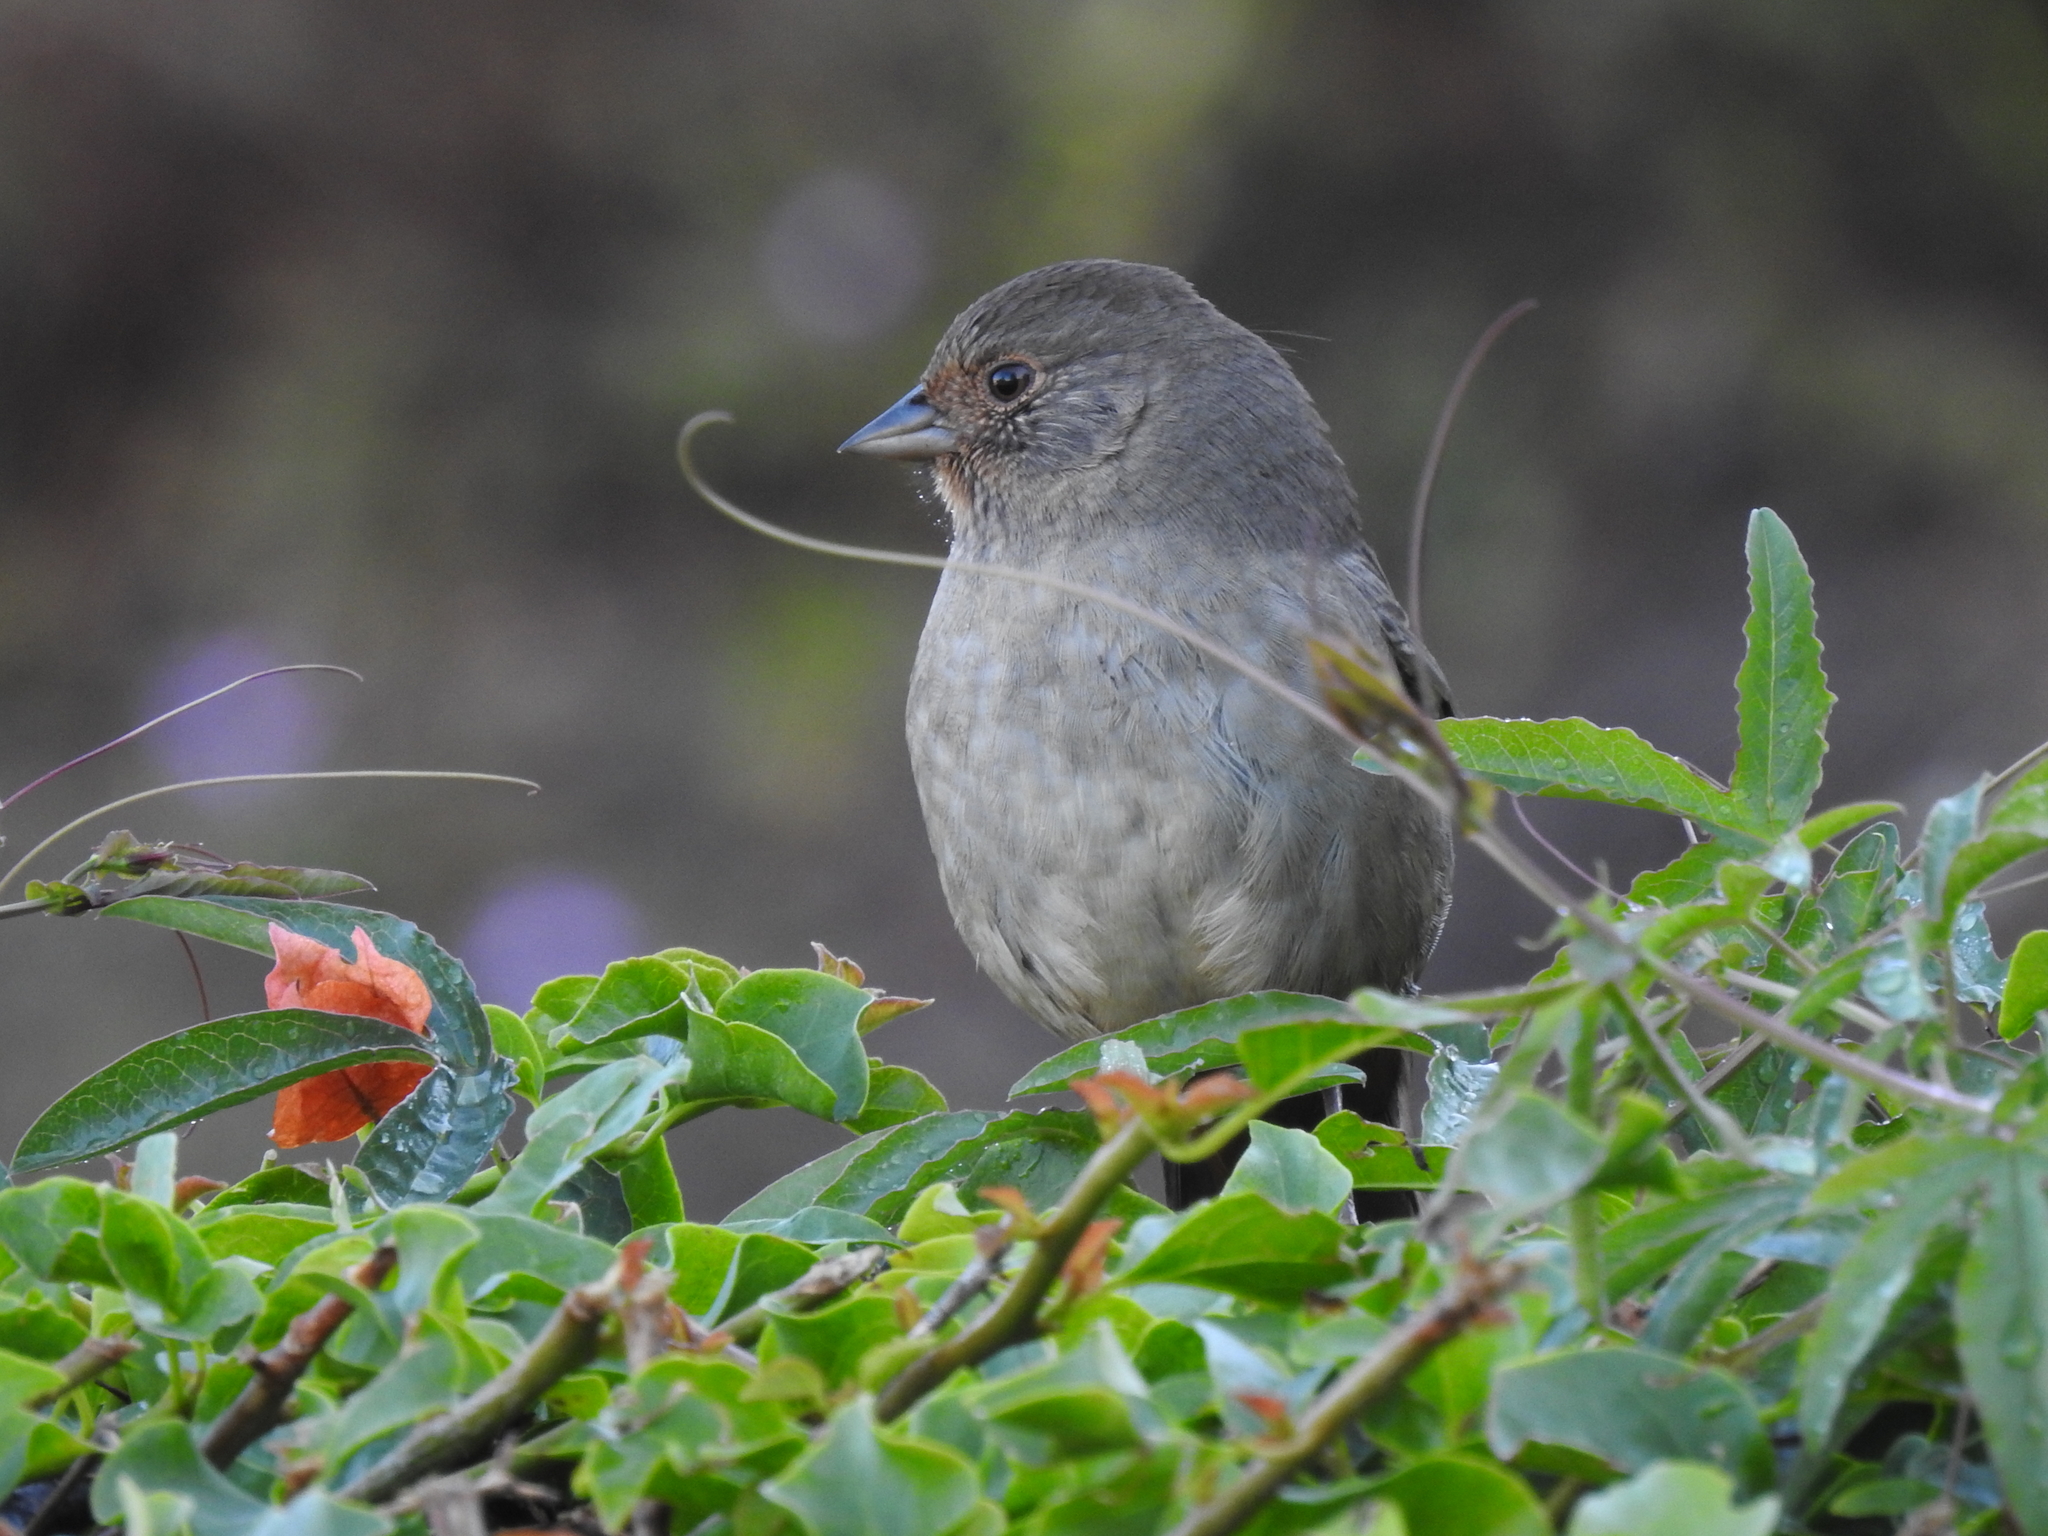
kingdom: Animalia
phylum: Chordata
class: Aves
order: Passeriformes
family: Passerellidae
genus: Melozone
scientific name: Melozone crissalis
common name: California towhee
